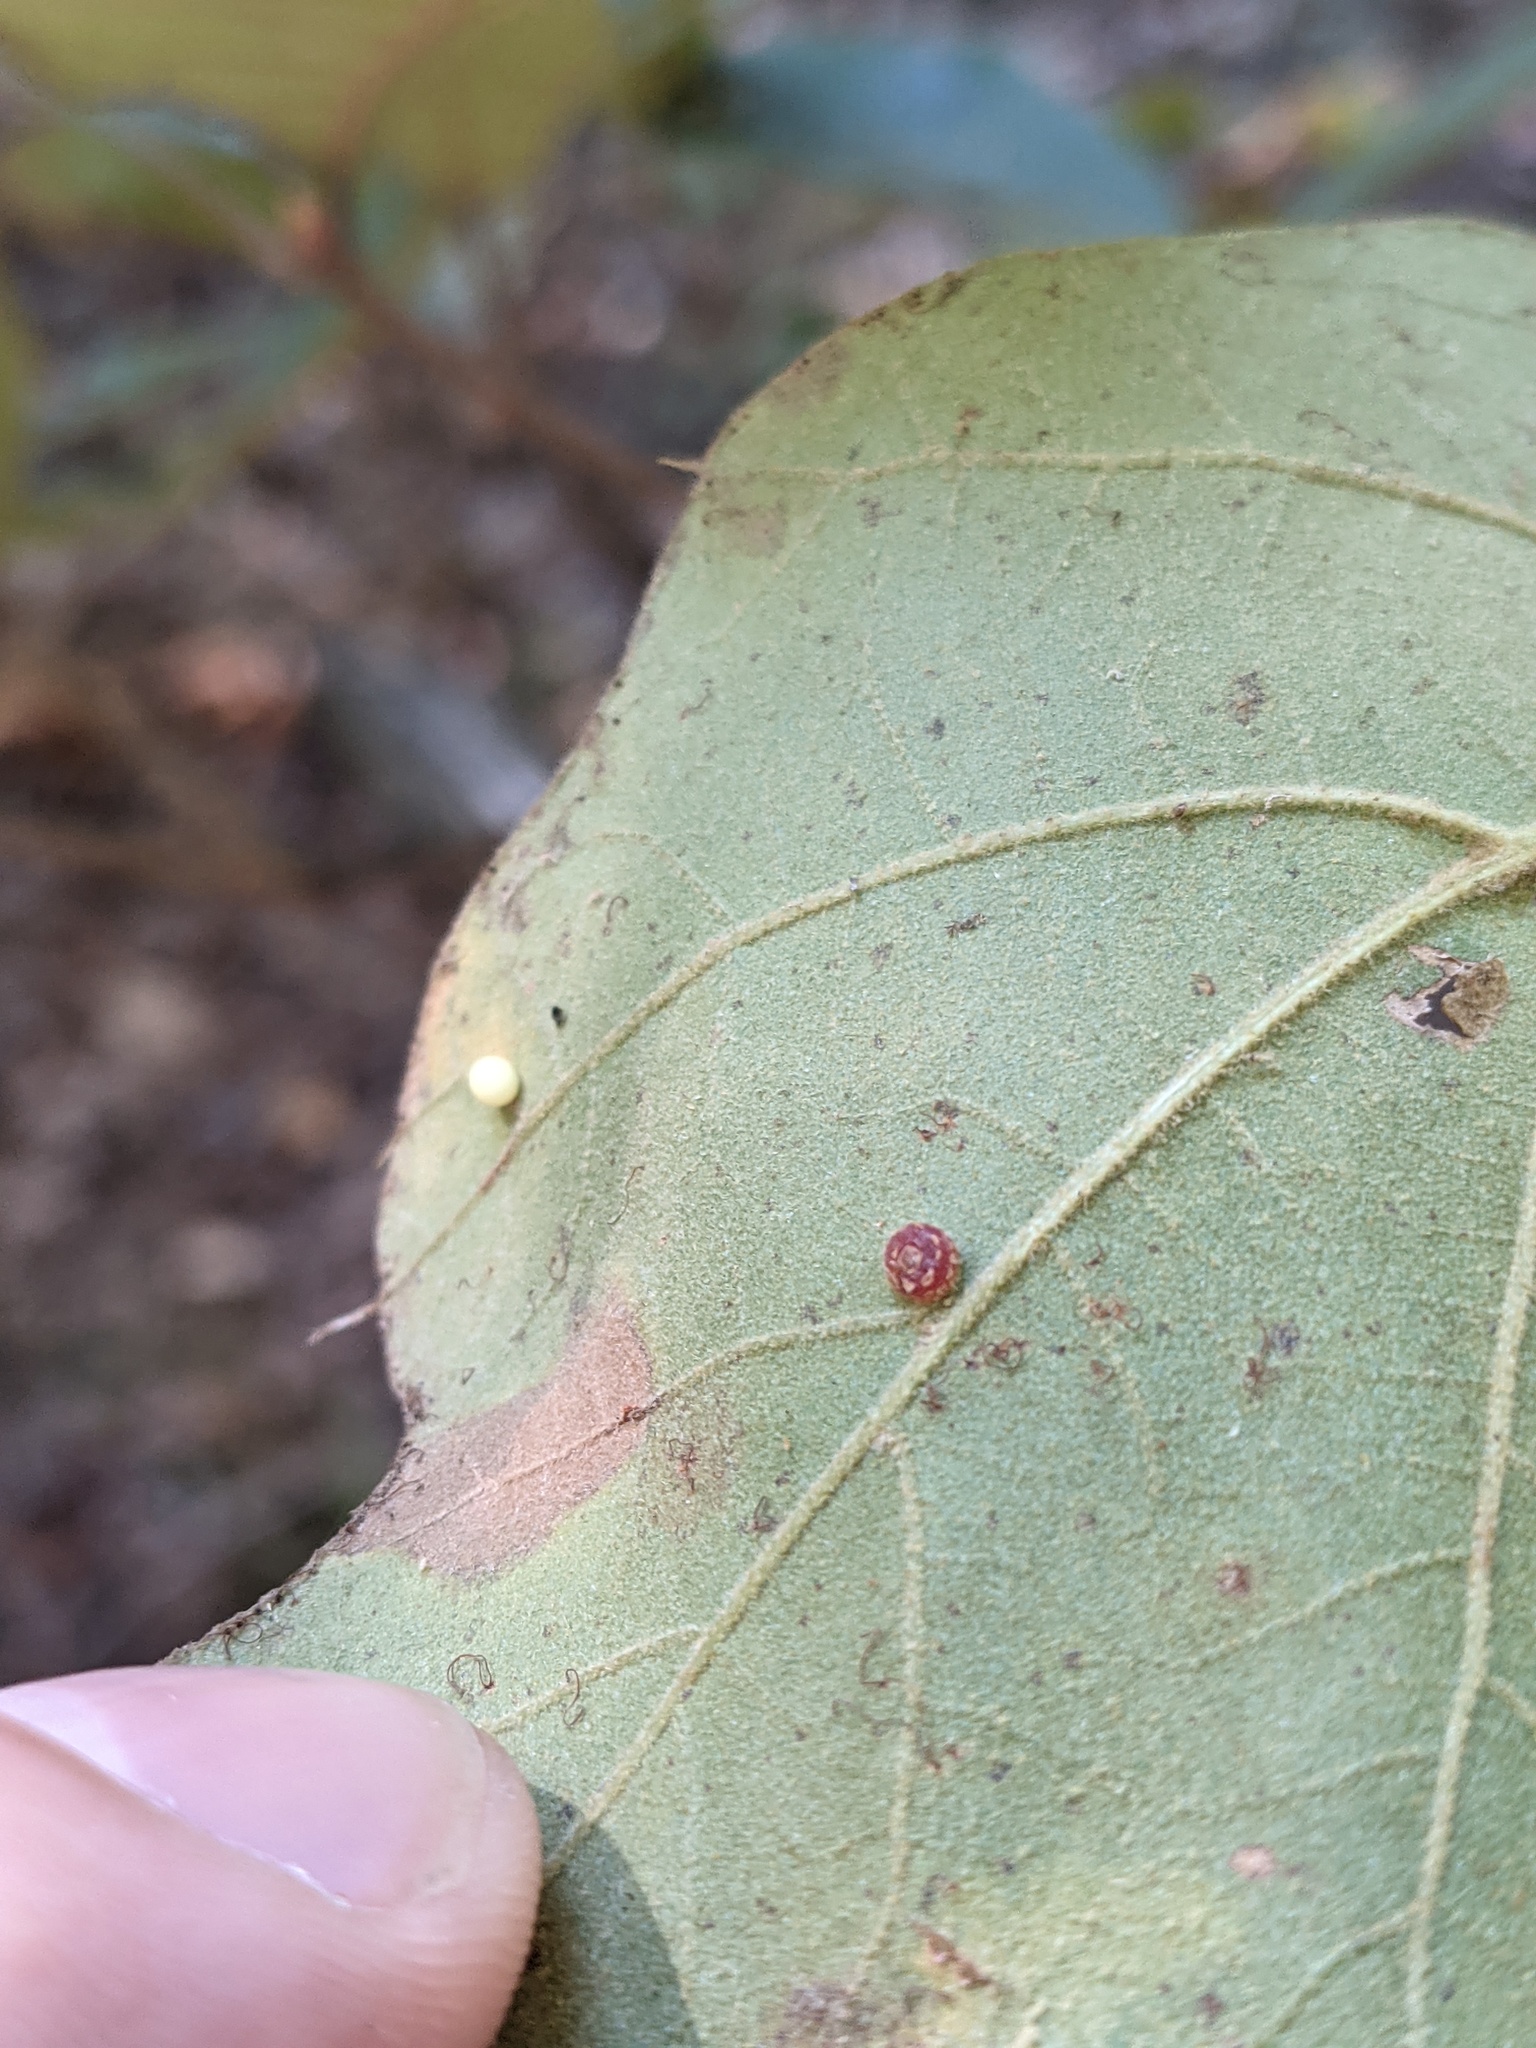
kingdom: Animalia
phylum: Arthropoda
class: Insecta
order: Diptera
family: Cecidomyiidae
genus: Polystepha
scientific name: Polystepha globosa
